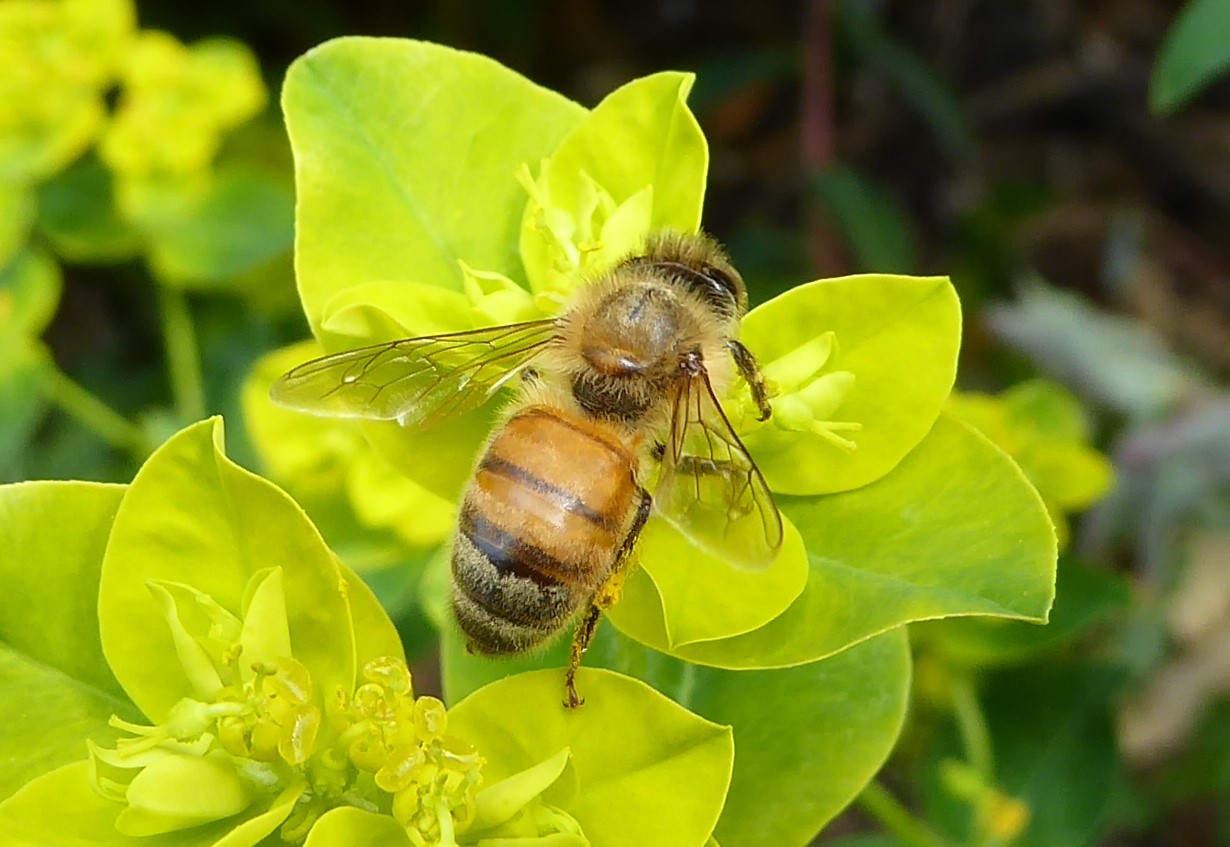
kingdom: Animalia
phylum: Arthropoda
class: Insecta
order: Hymenoptera
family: Apidae
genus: Apis
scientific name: Apis mellifera
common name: Honey bee
